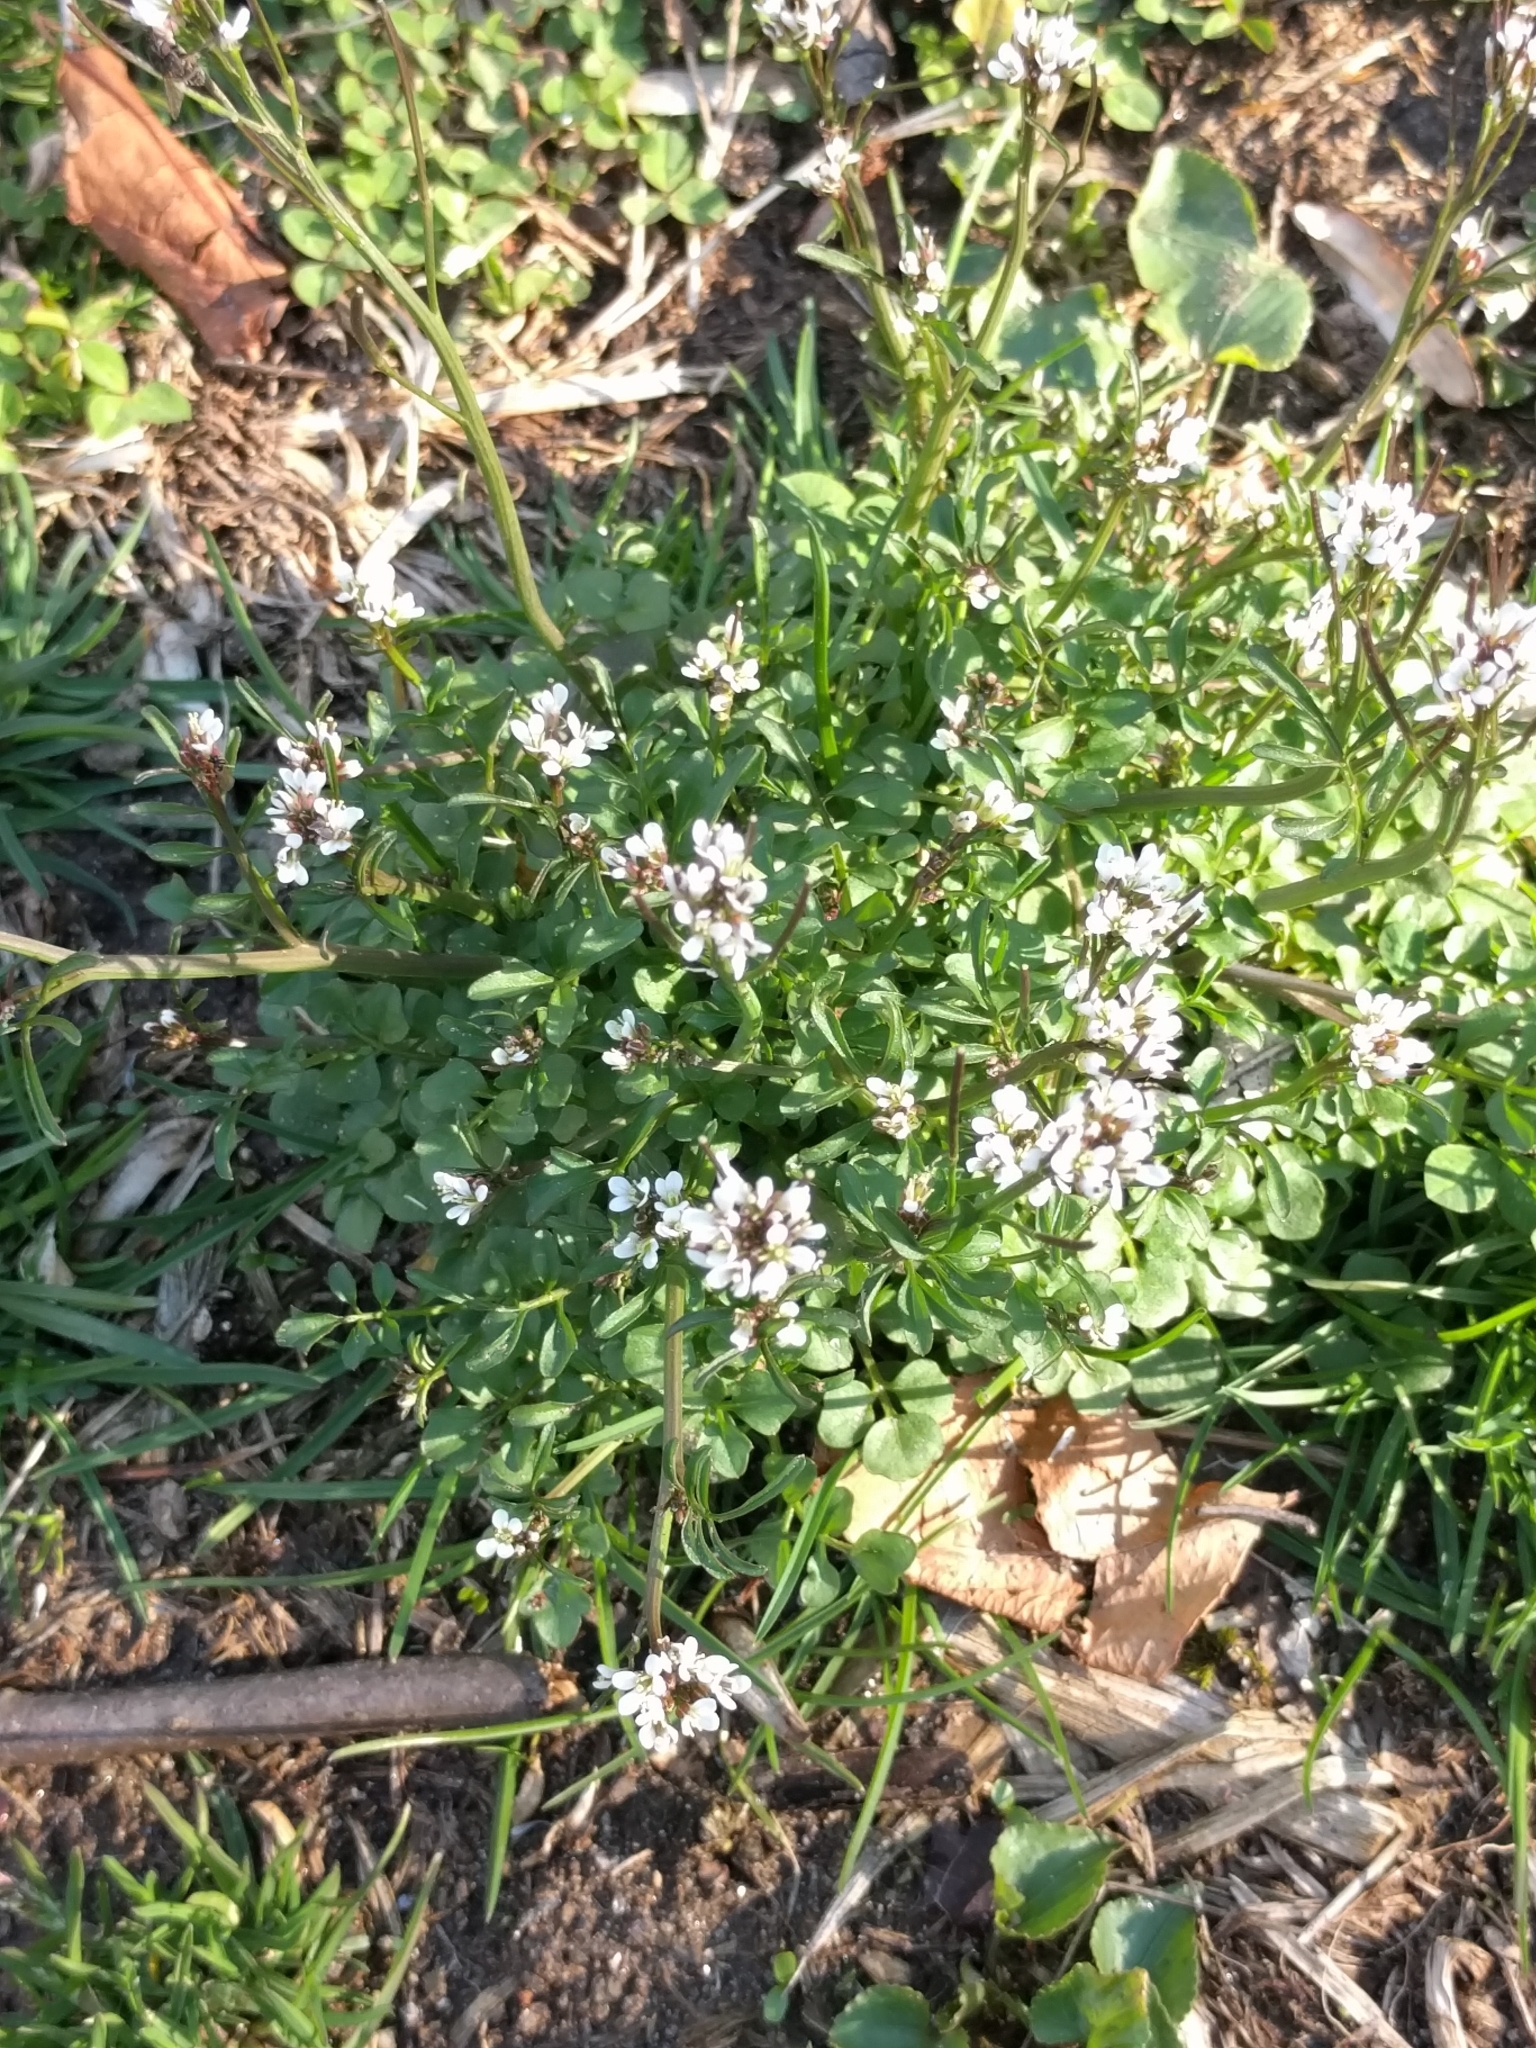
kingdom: Plantae
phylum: Tracheophyta
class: Magnoliopsida
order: Brassicales
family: Brassicaceae
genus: Cardamine
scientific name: Cardamine hirsuta
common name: Hairy bittercress
